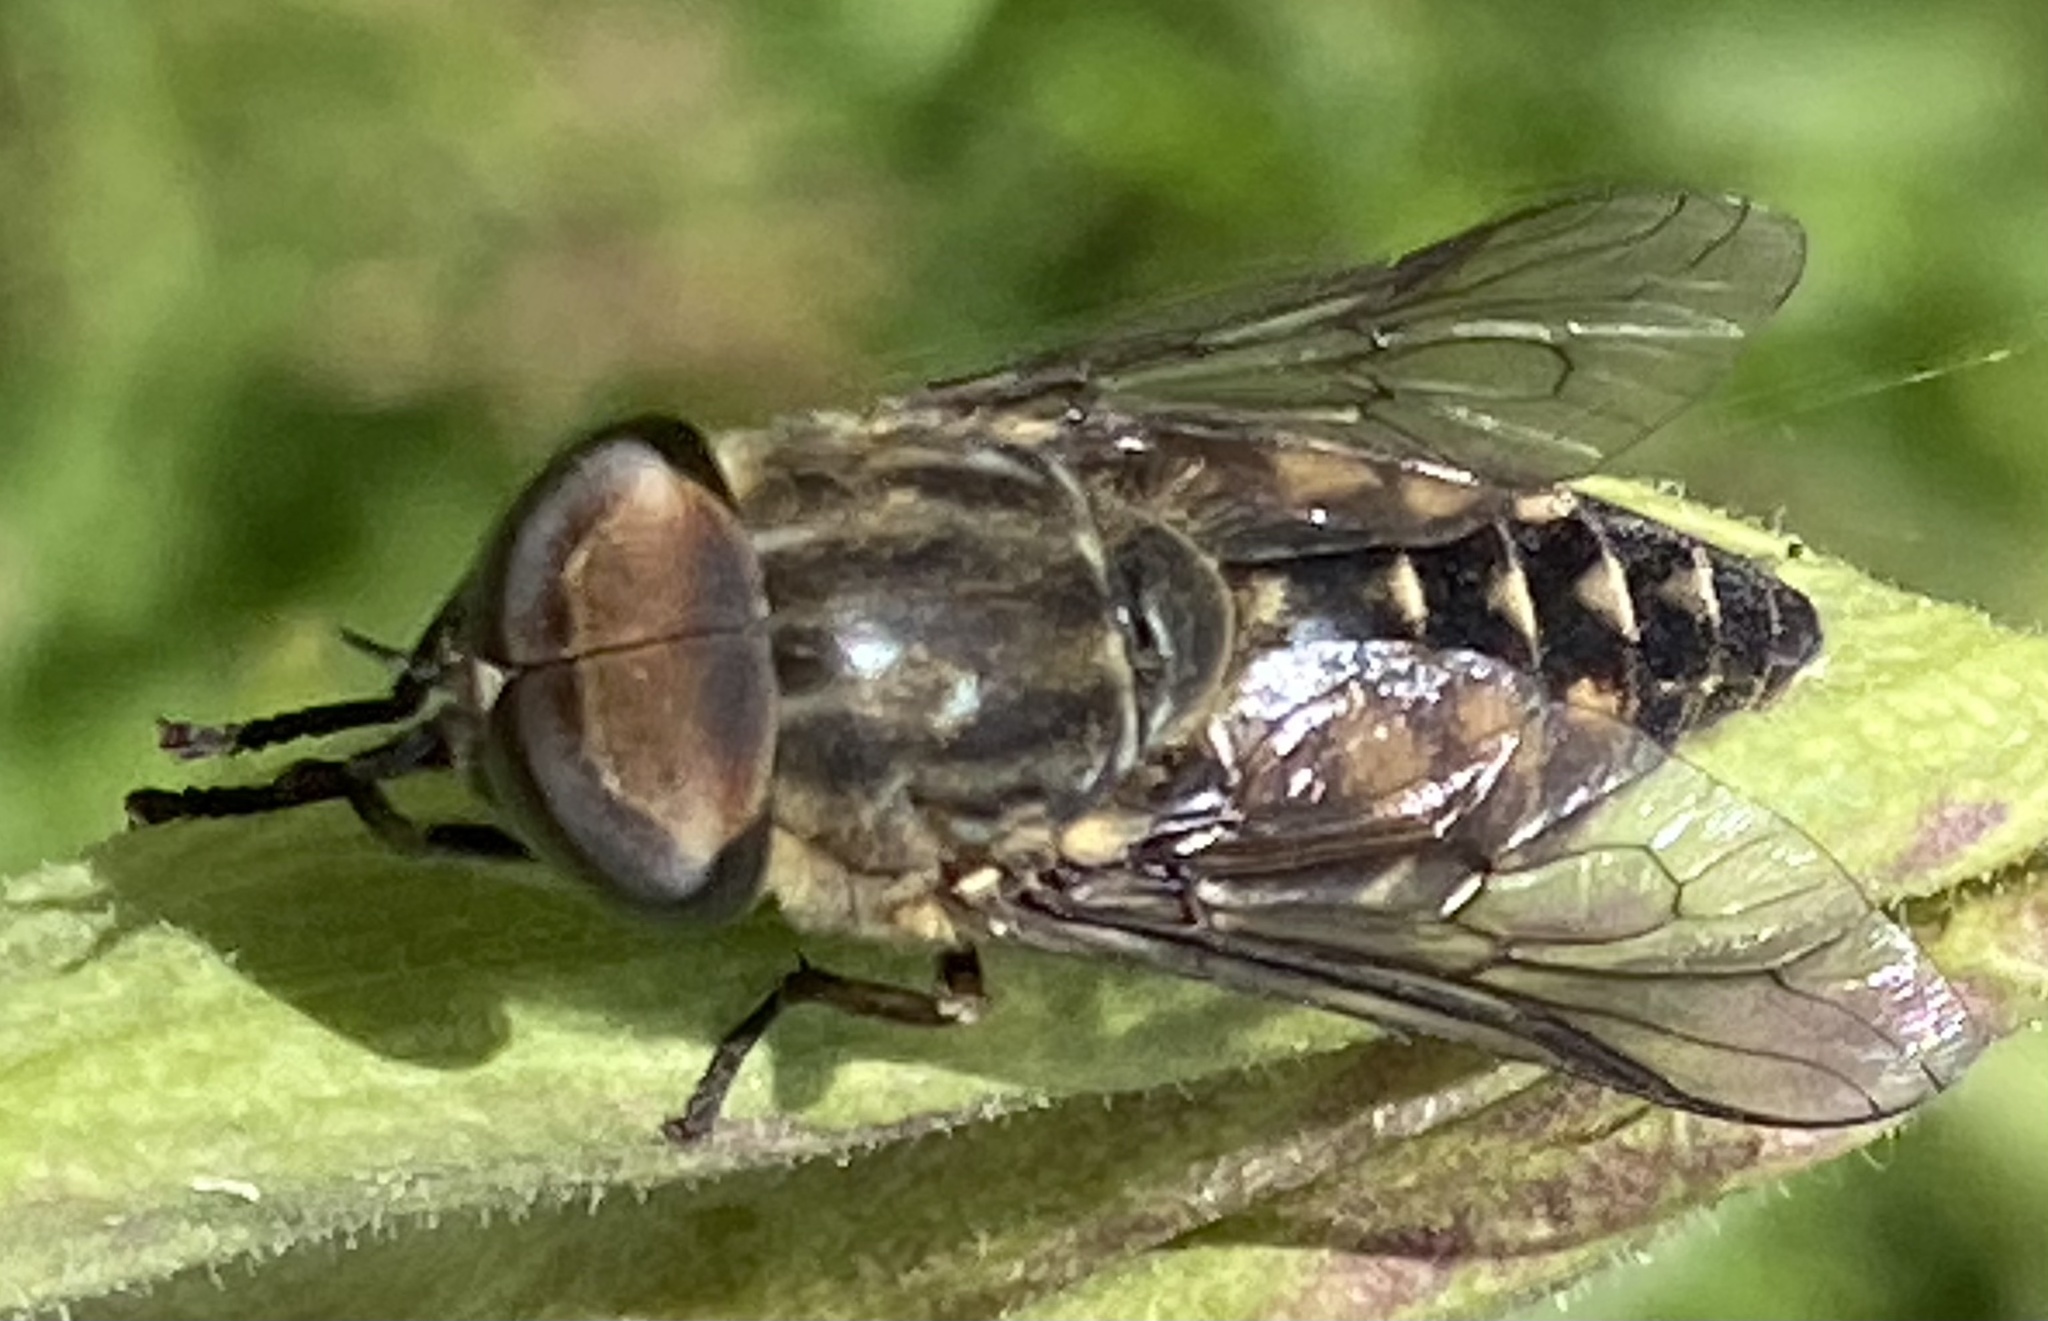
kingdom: Animalia
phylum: Arthropoda
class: Insecta
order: Diptera
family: Tabanidae
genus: Tabanus
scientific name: Tabanus autumnalis
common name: Large marsh horsefly
